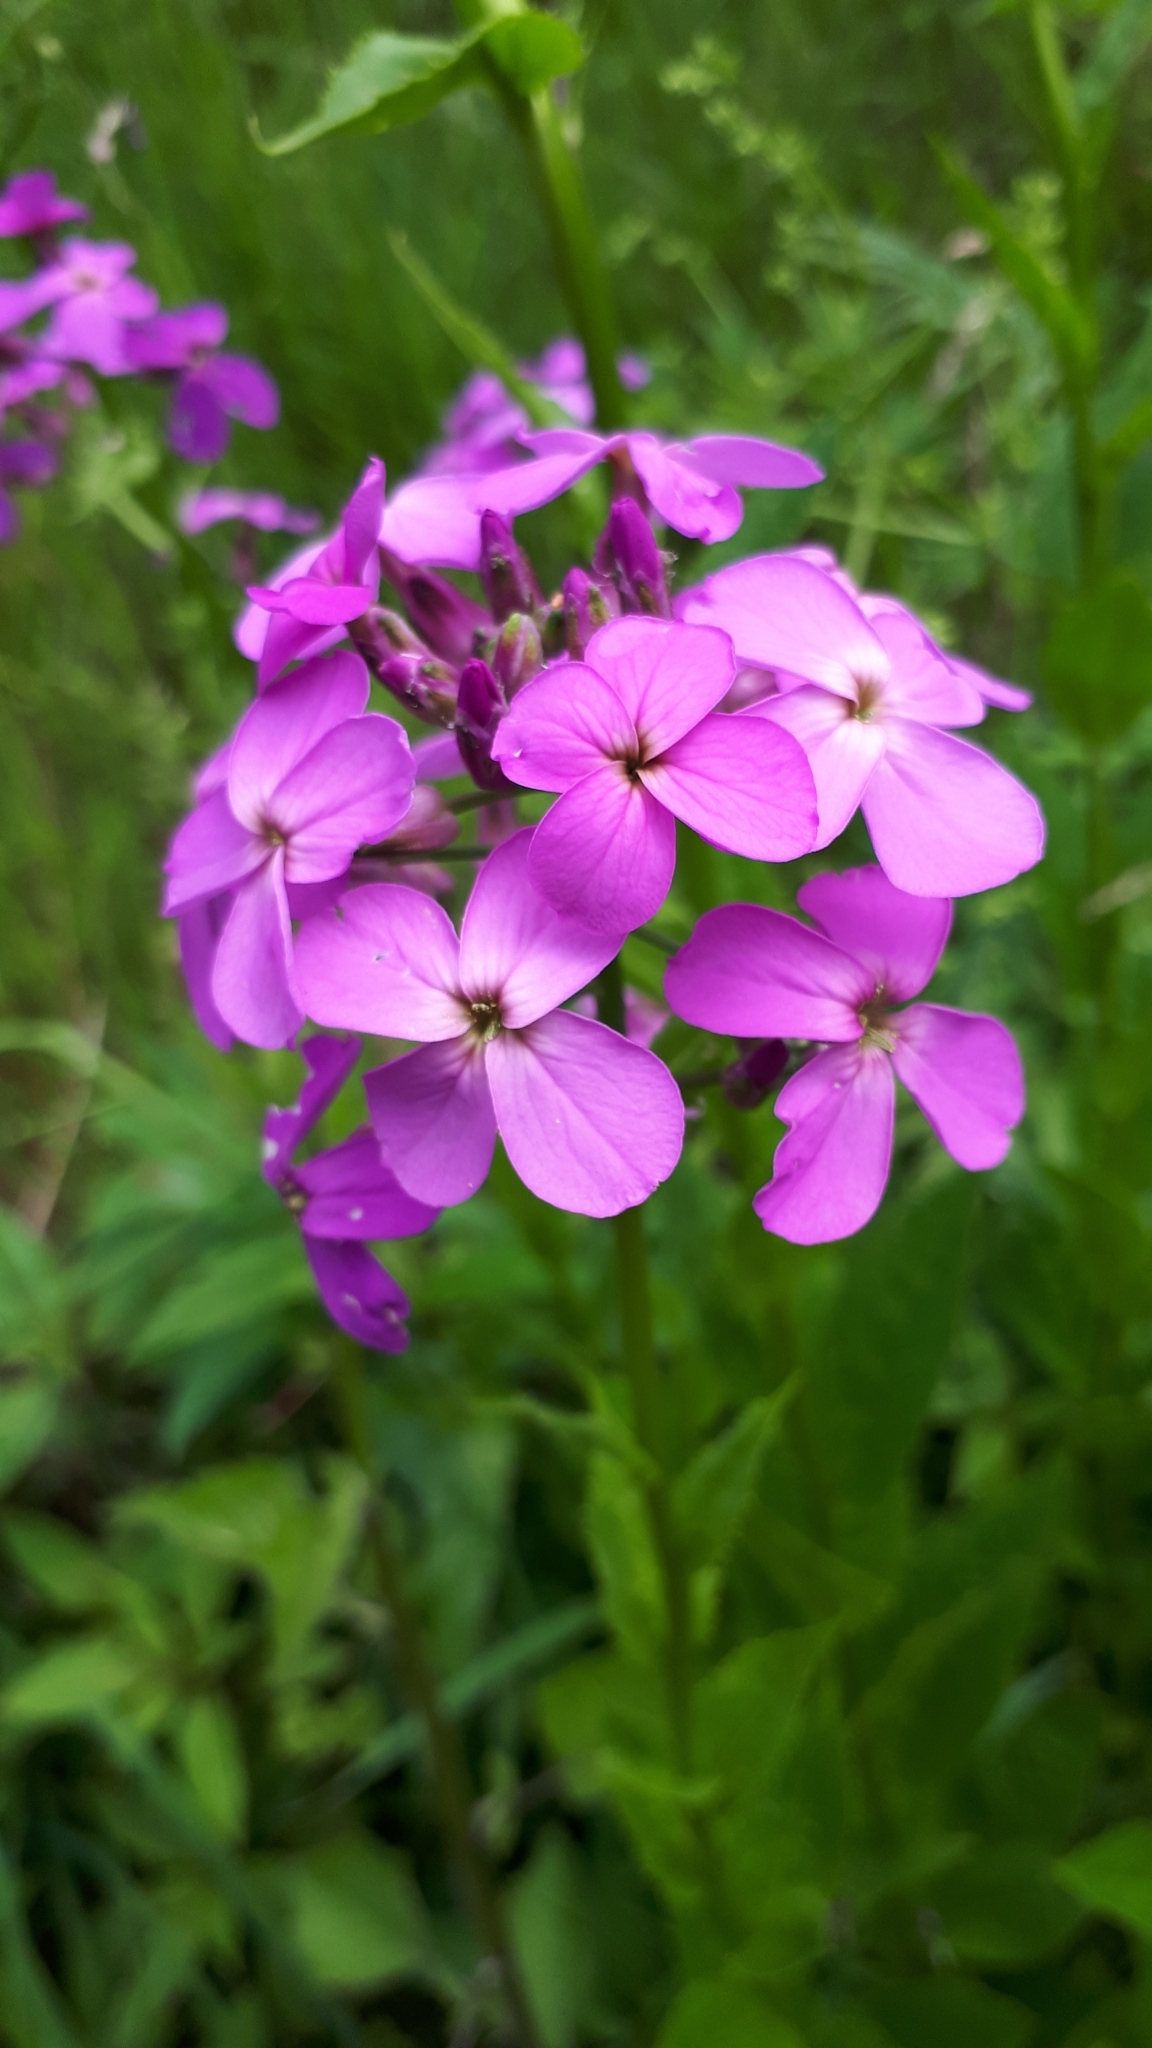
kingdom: Plantae
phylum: Tracheophyta
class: Magnoliopsida
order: Brassicales
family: Brassicaceae
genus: Hesperis
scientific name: Hesperis matronalis
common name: Dame's-violet
